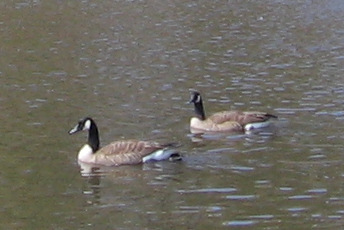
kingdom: Animalia
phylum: Chordata
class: Aves
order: Anseriformes
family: Anatidae
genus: Branta
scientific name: Branta canadensis
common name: Canada goose
